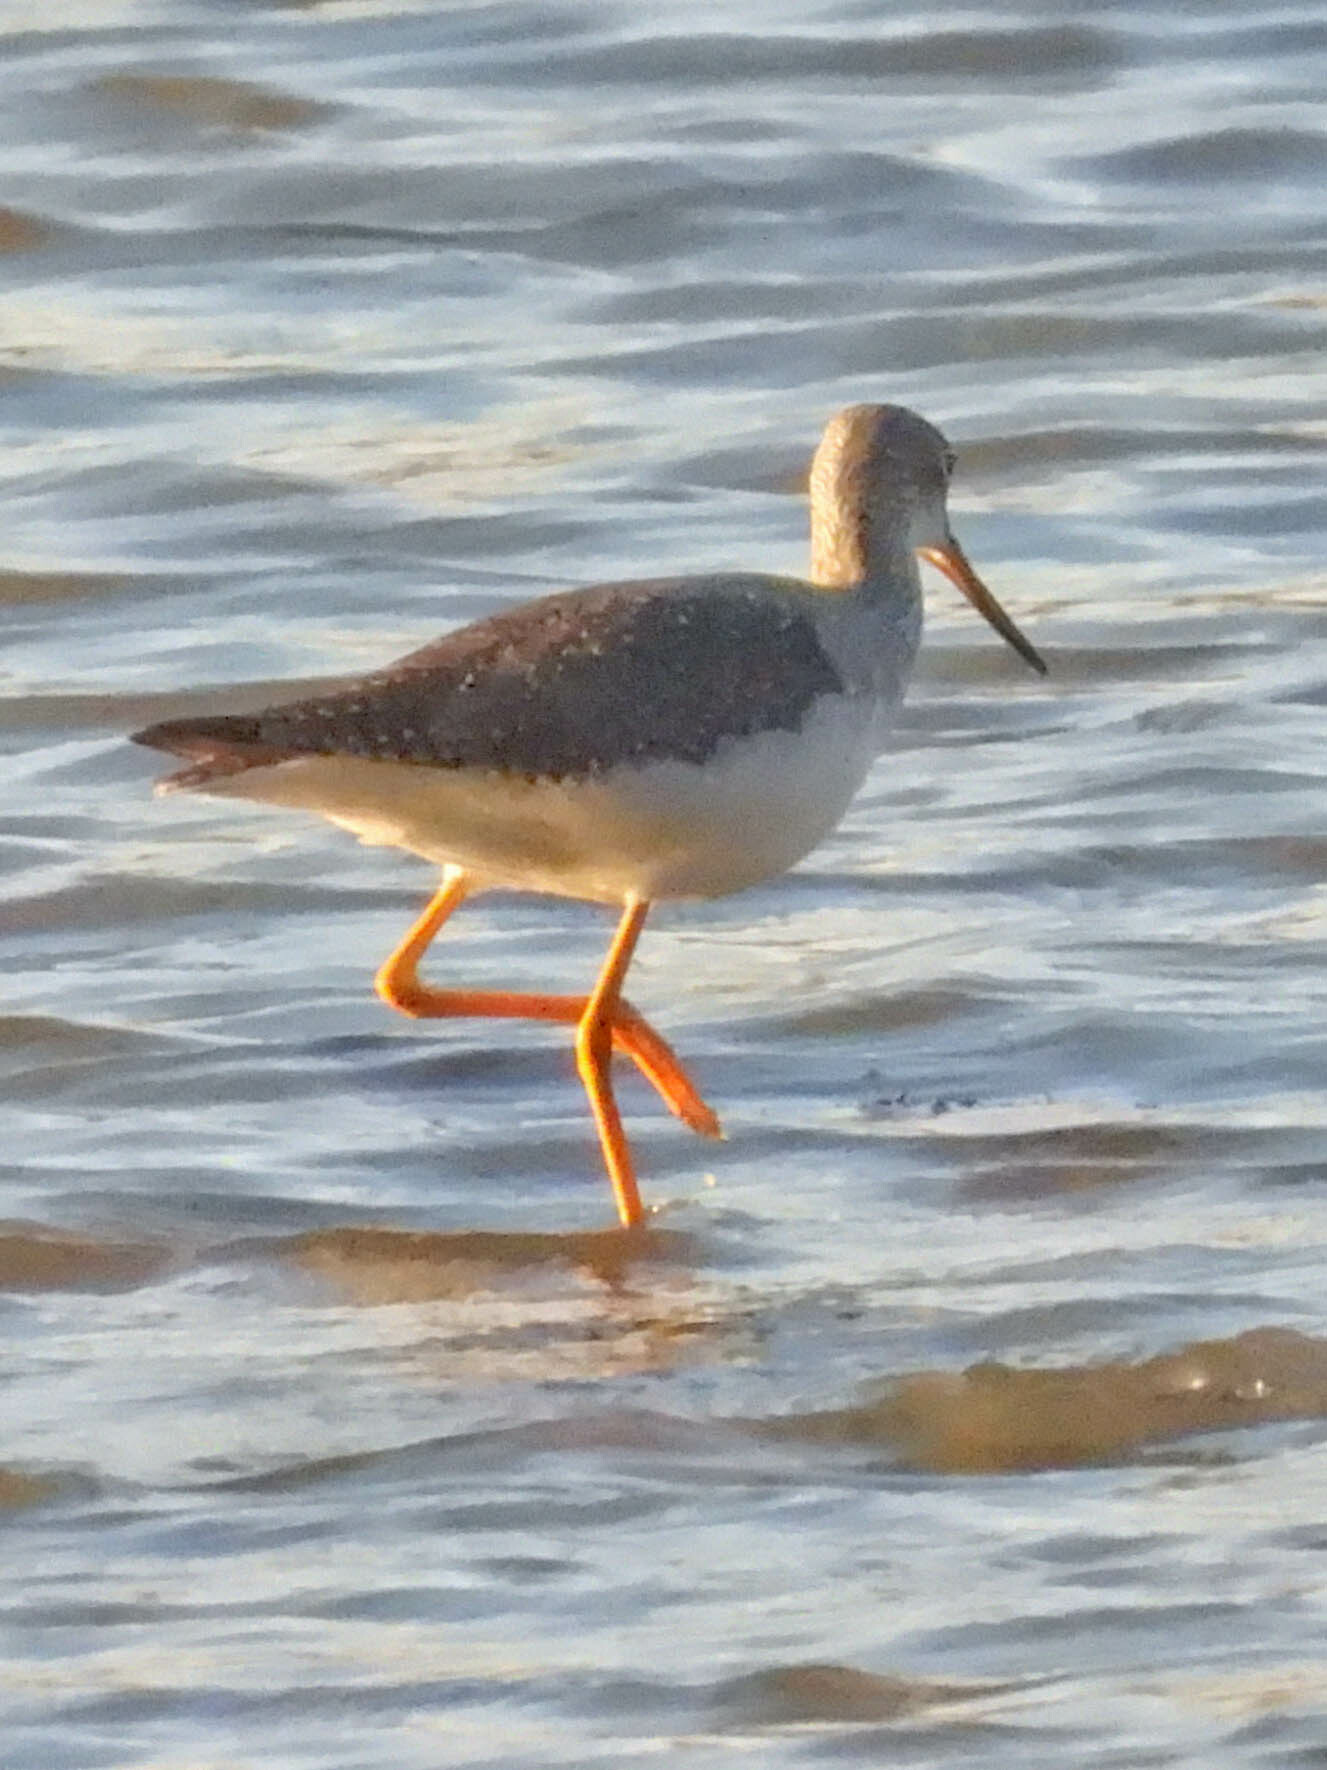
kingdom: Animalia
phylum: Chordata
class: Aves
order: Charadriiformes
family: Scolopacidae
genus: Tringa
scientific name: Tringa melanoleuca
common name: Greater yellowlegs
